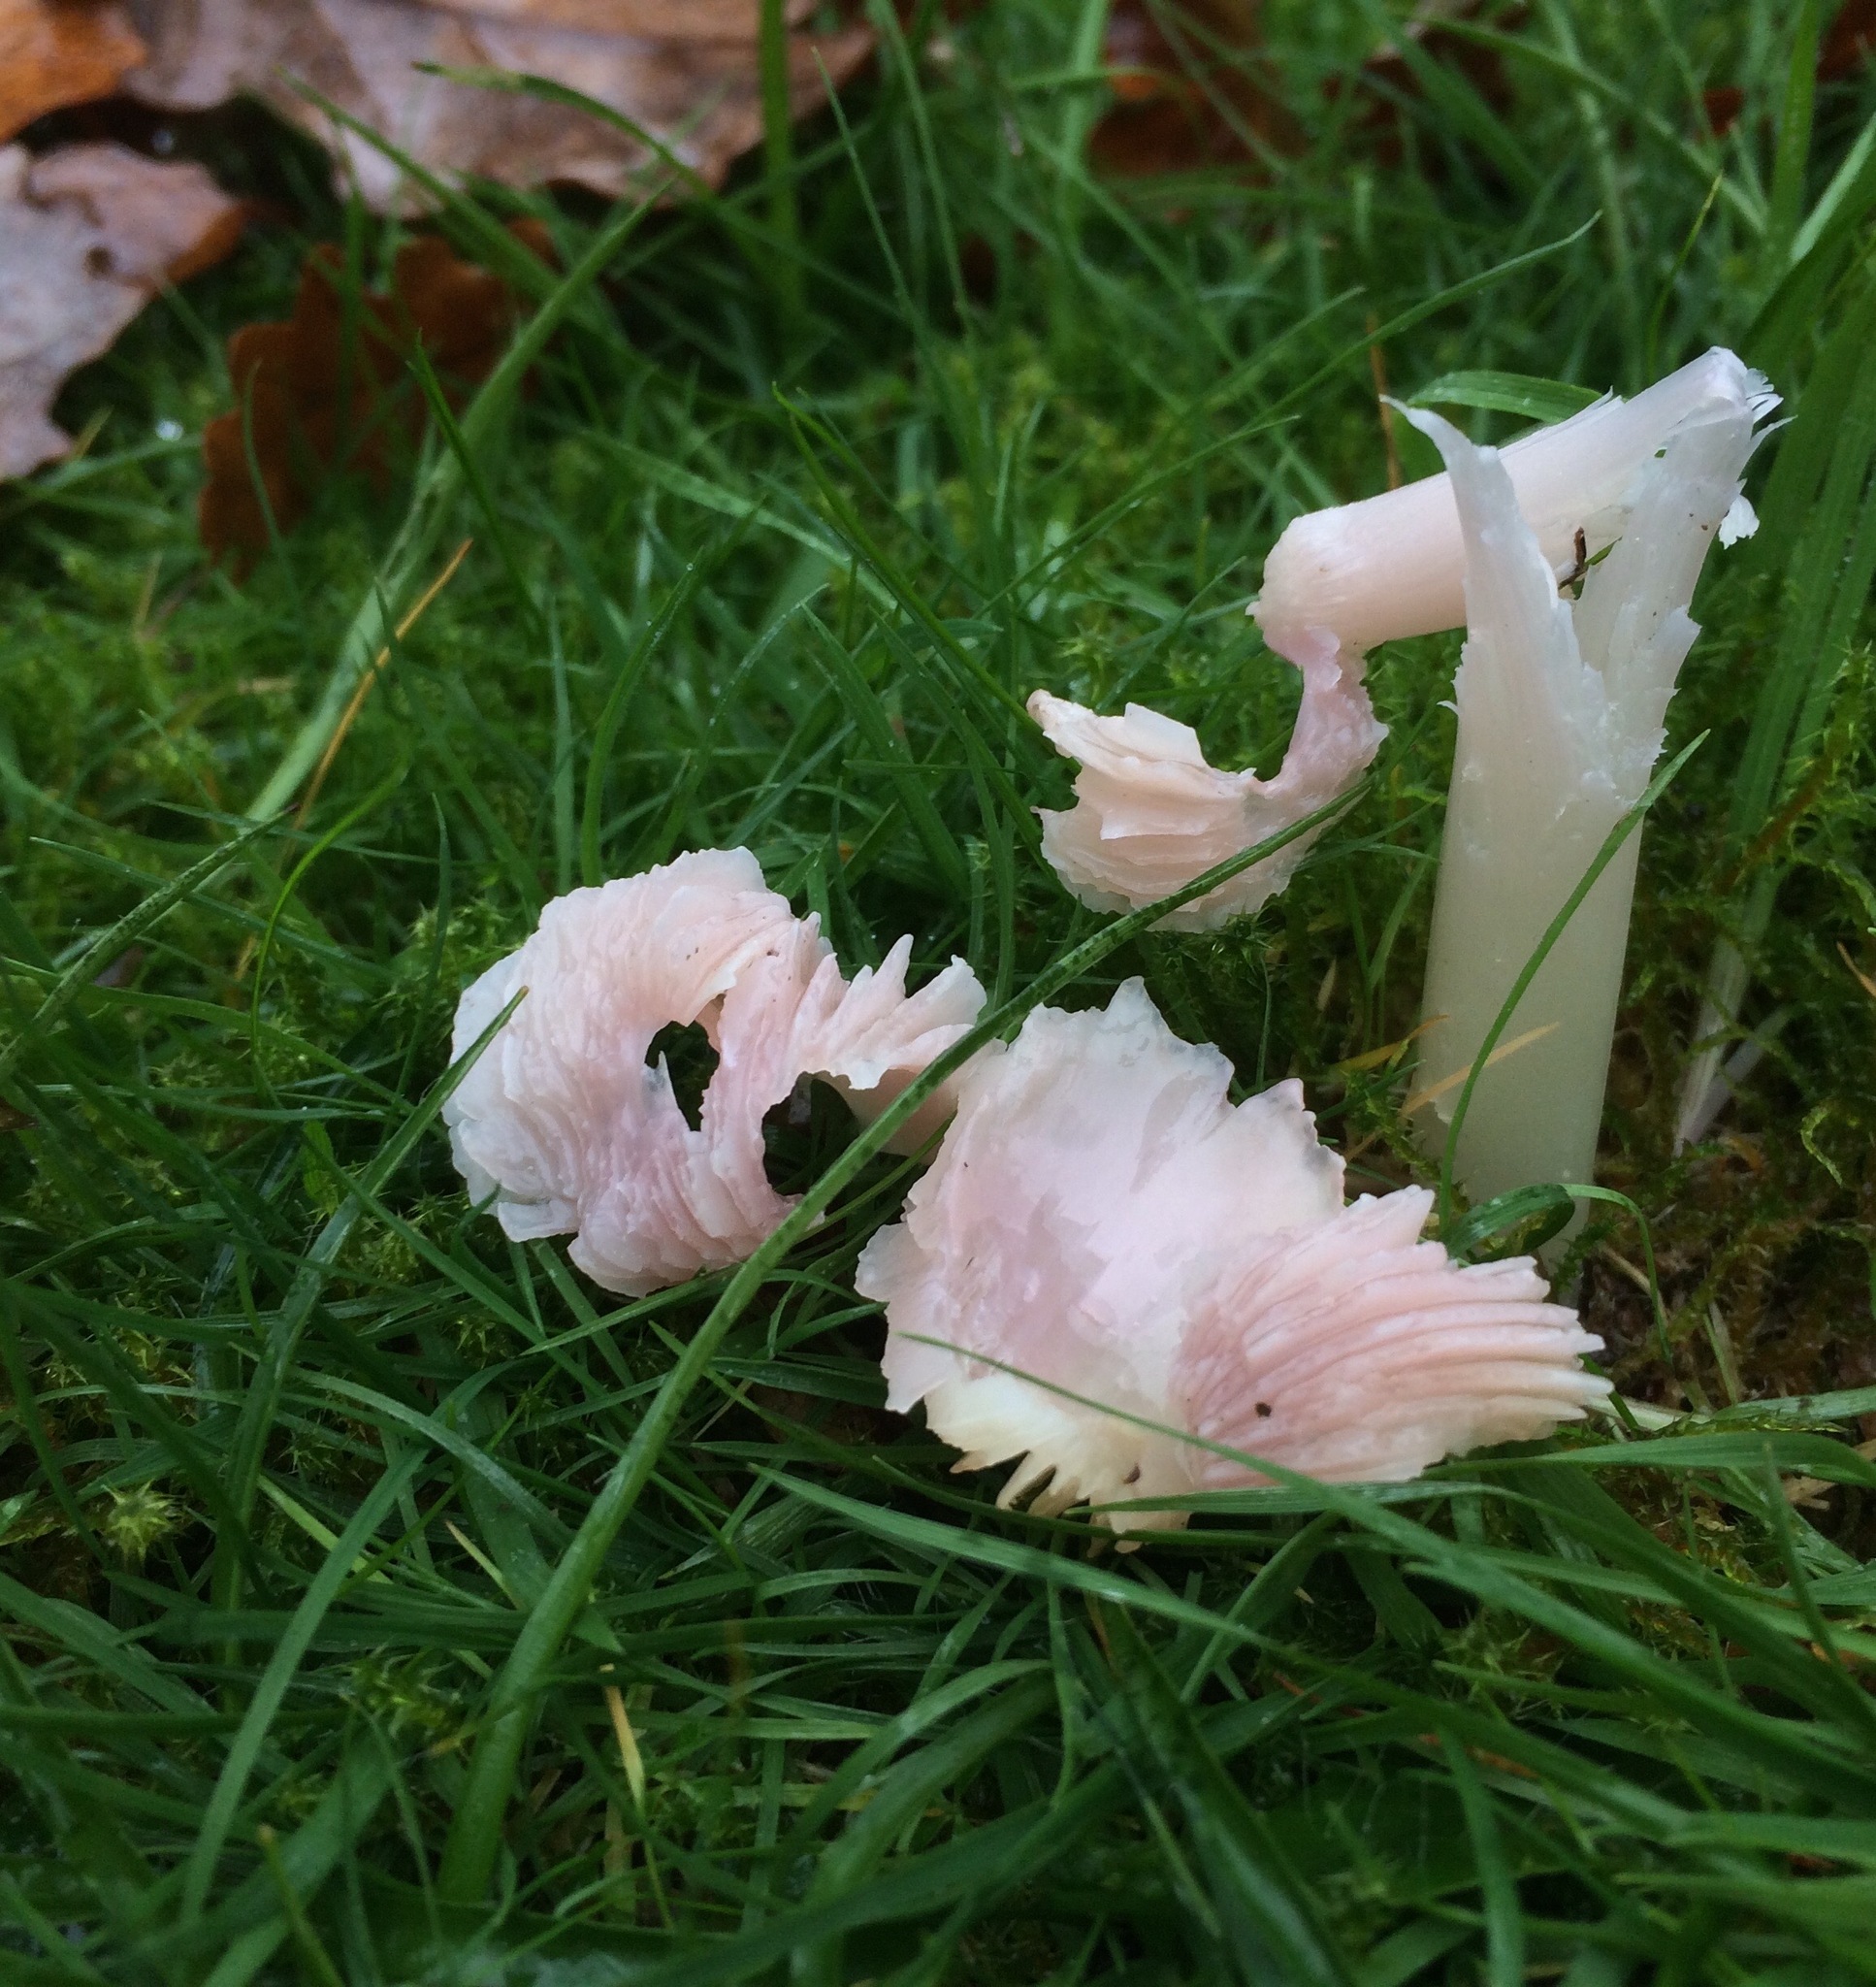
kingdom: Fungi
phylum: Basidiomycota
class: Agaricomycetes
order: Agaricales
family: Hygrophoraceae
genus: Porpolomopsis
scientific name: Porpolomopsis calyptriformis
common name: Pink waxcap
